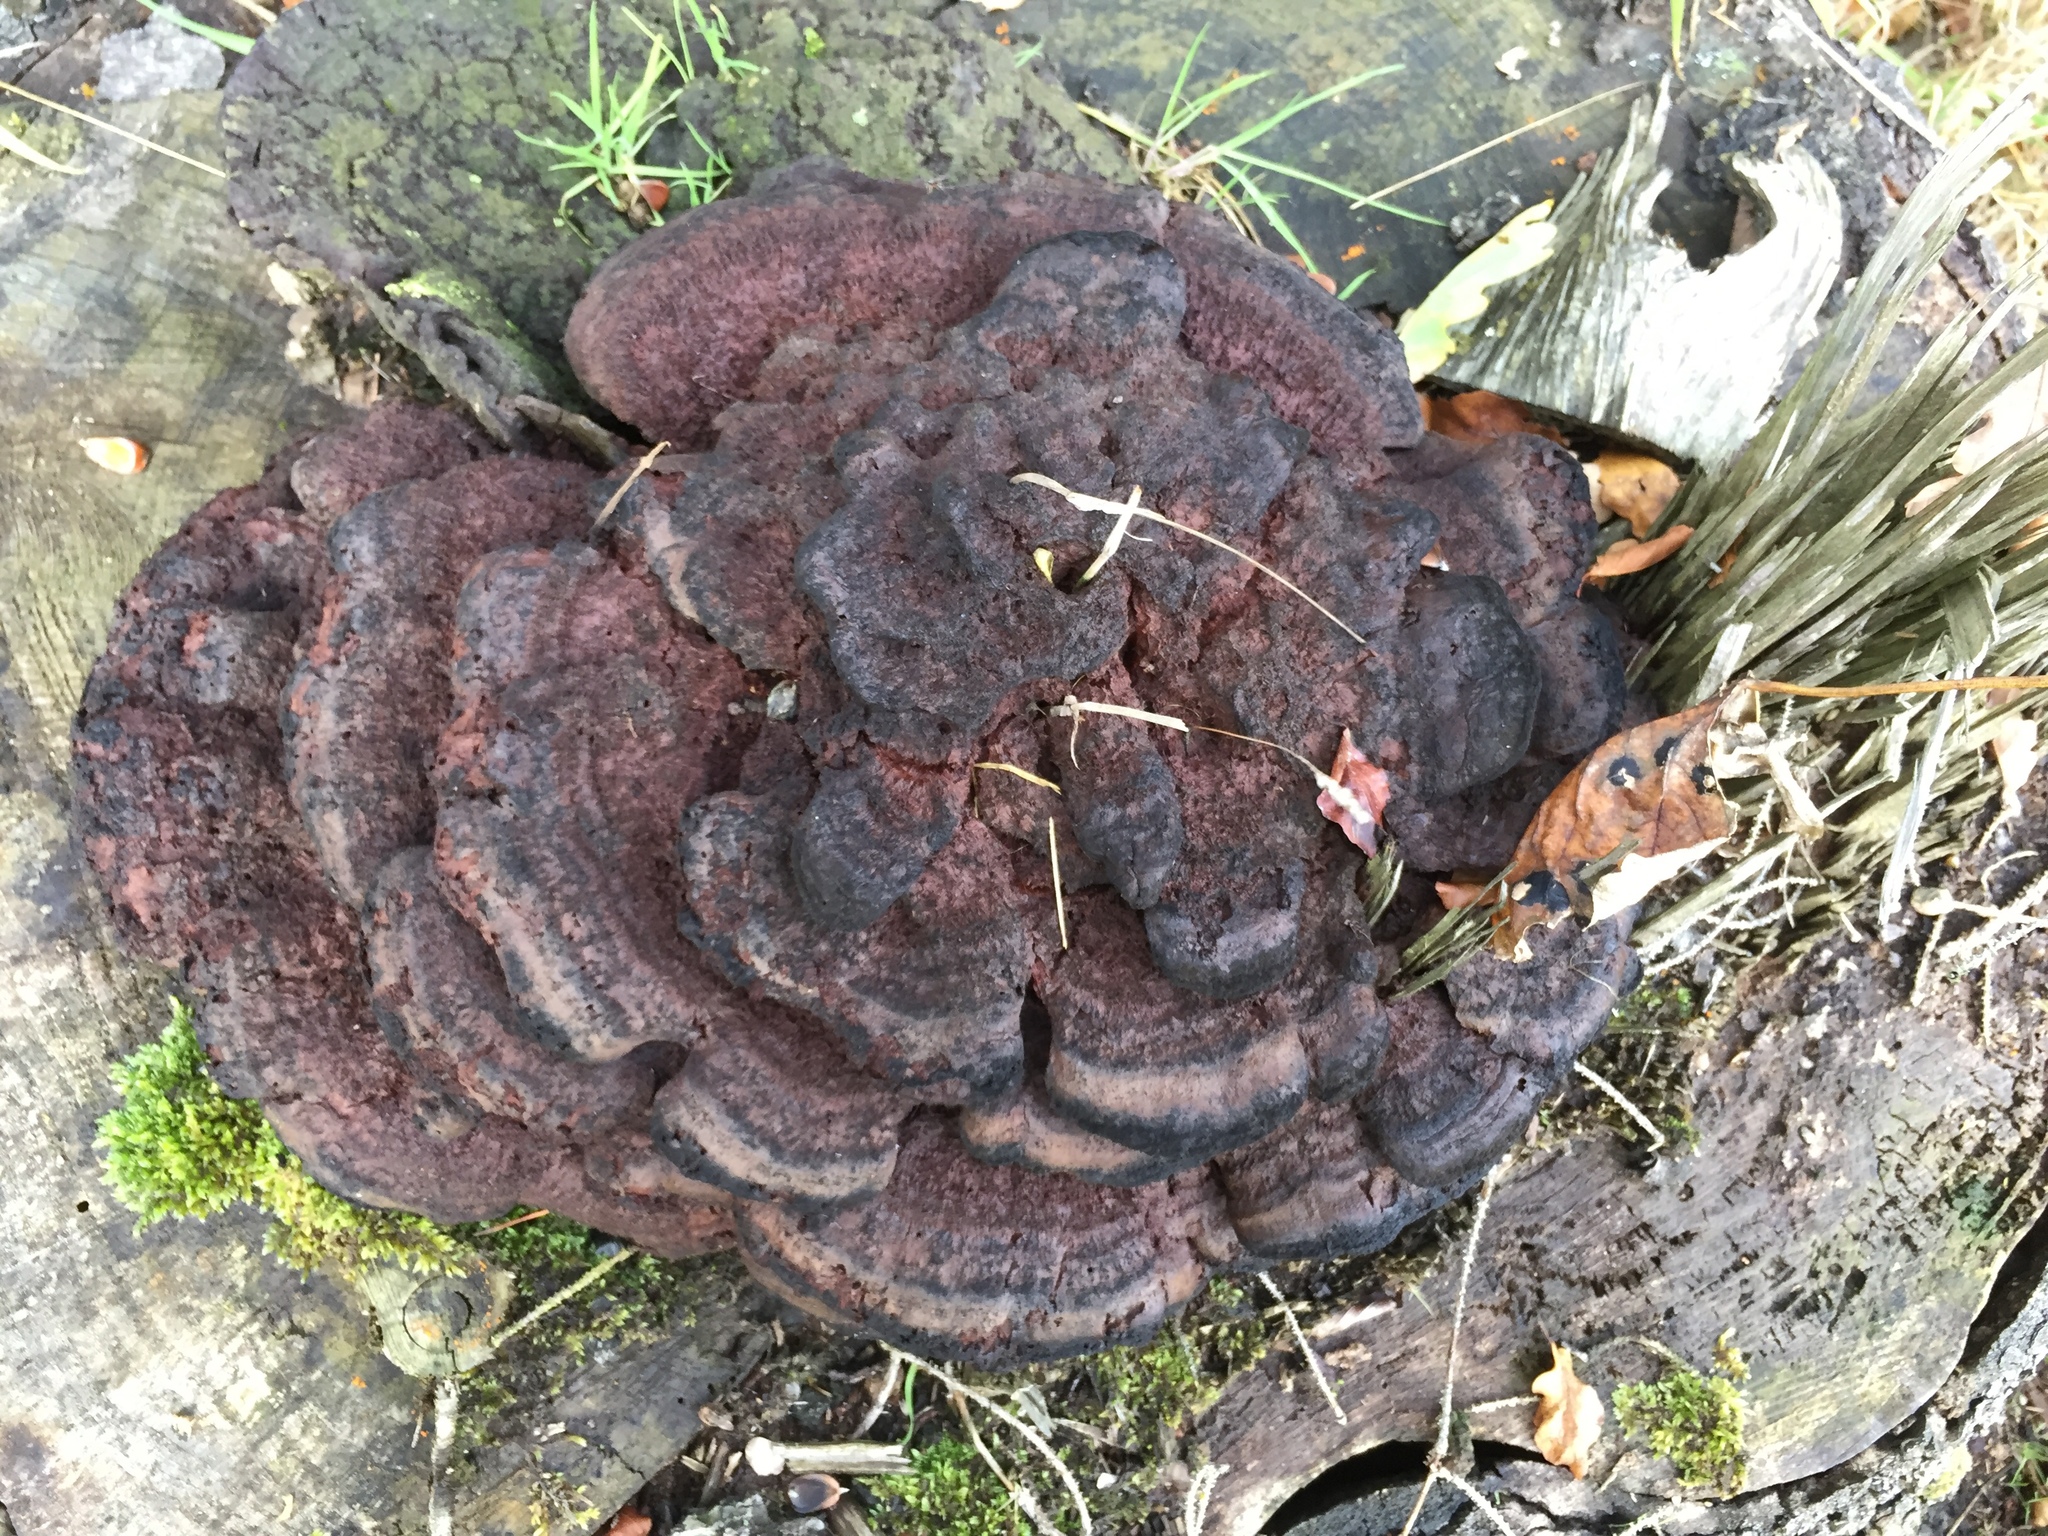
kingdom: Fungi
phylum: Basidiomycota
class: Agaricomycetes
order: Polyporales
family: Laetiporaceae
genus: Phaeolus
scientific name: Phaeolus schweinitzii
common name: Dyer's mazegill
